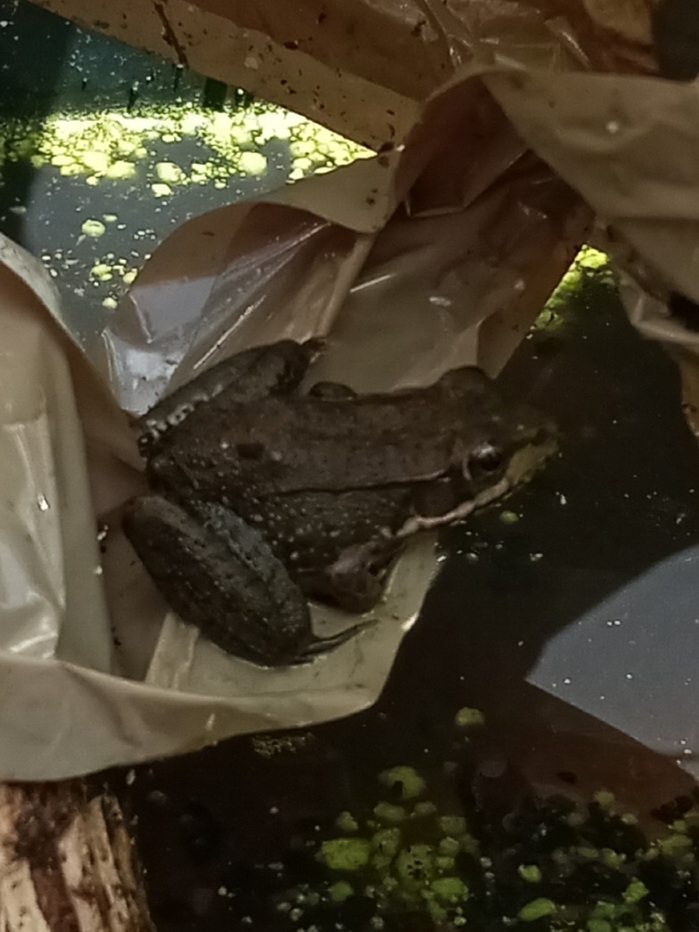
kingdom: Animalia
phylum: Chordata
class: Amphibia
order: Anura
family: Ranidae
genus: Lithobates
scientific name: Lithobates clamitans
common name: Green frog
